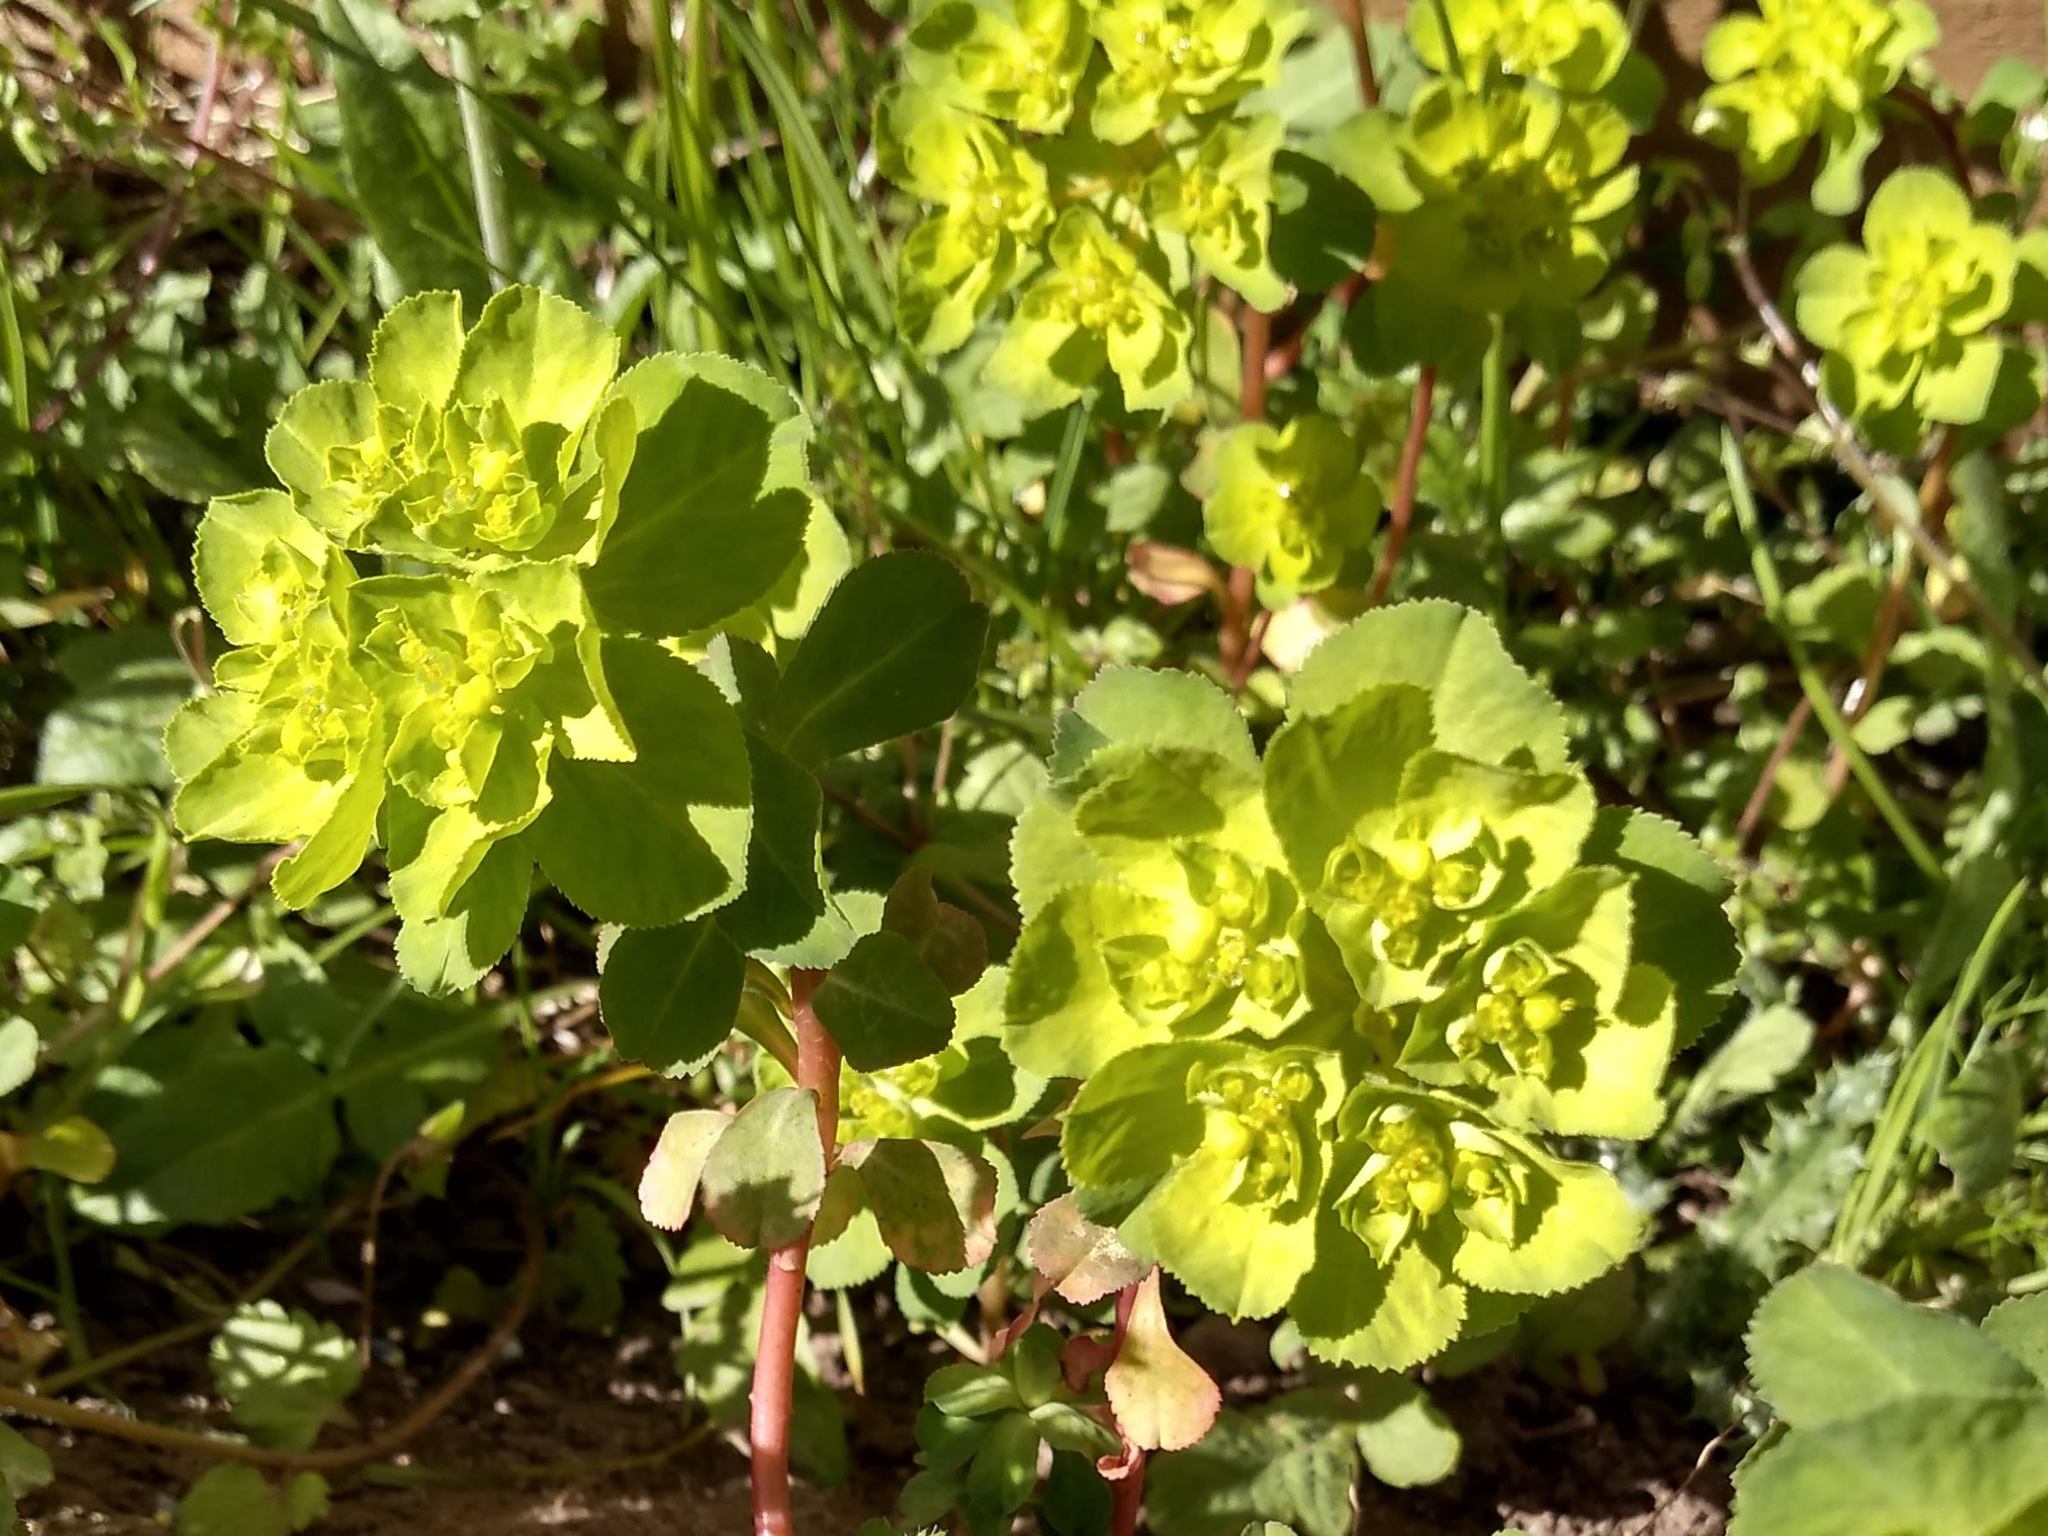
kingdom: Plantae
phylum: Tracheophyta
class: Magnoliopsida
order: Malpighiales
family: Euphorbiaceae
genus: Euphorbia
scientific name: Euphorbia helioscopia
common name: Sun spurge
